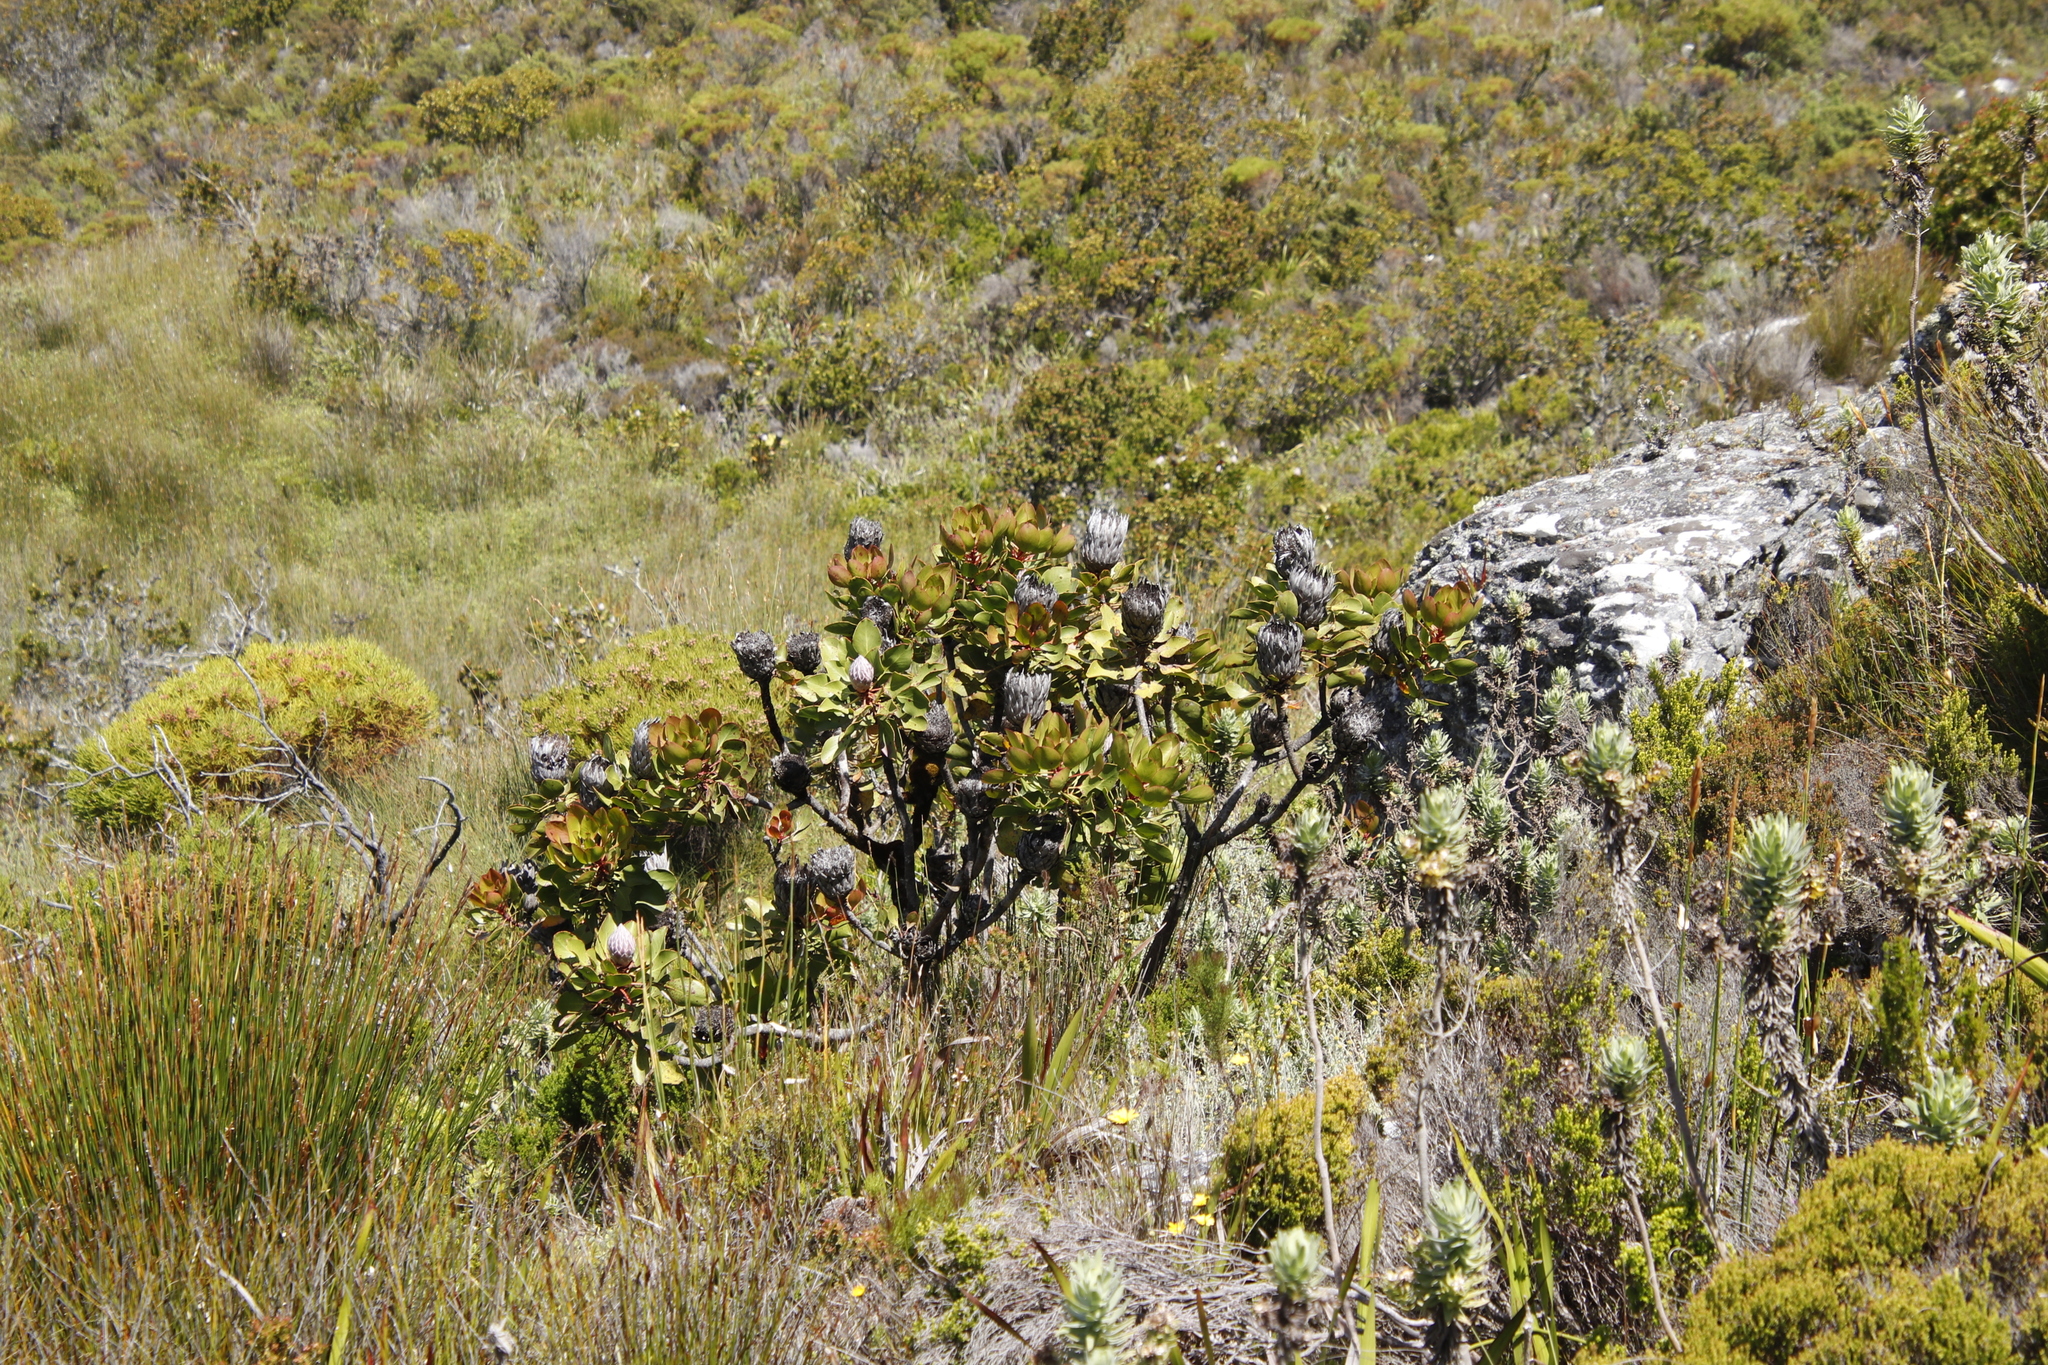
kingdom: Plantae
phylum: Tracheophyta
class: Magnoliopsida
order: Proteales
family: Proteaceae
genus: Protea
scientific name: Protea cynaroides
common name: King protea
